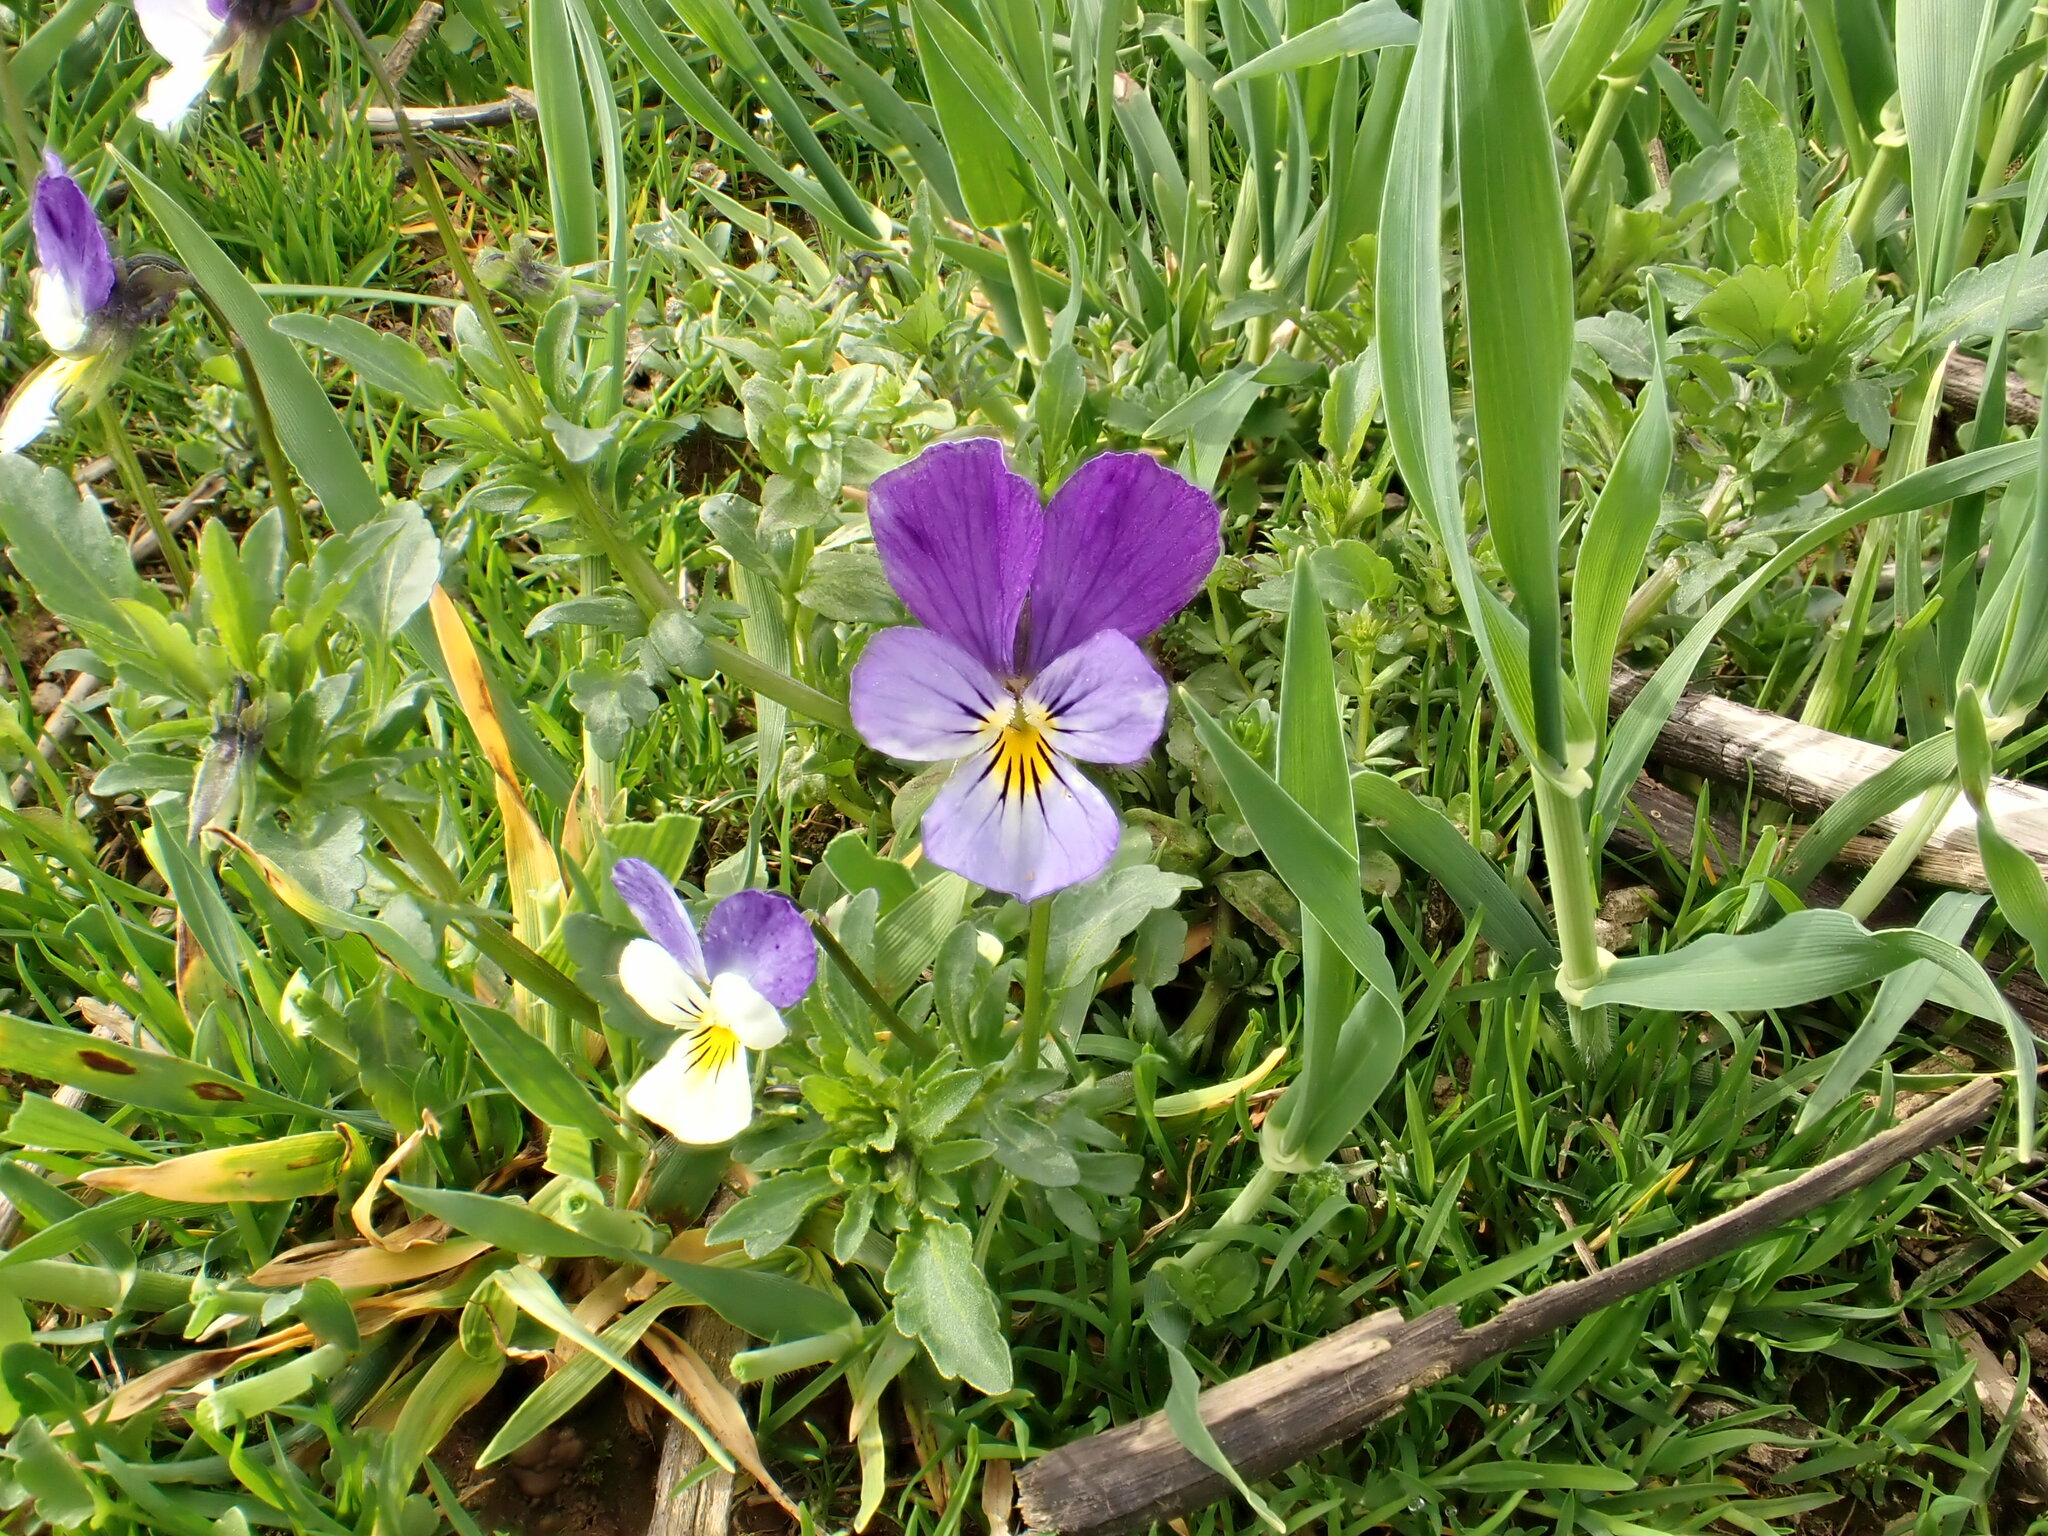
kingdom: Plantae
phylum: Tracheophyta
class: Magnoliopsida
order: Malpighiales
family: Violaceae
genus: Viola
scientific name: Viola tricolor
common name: Pansy
